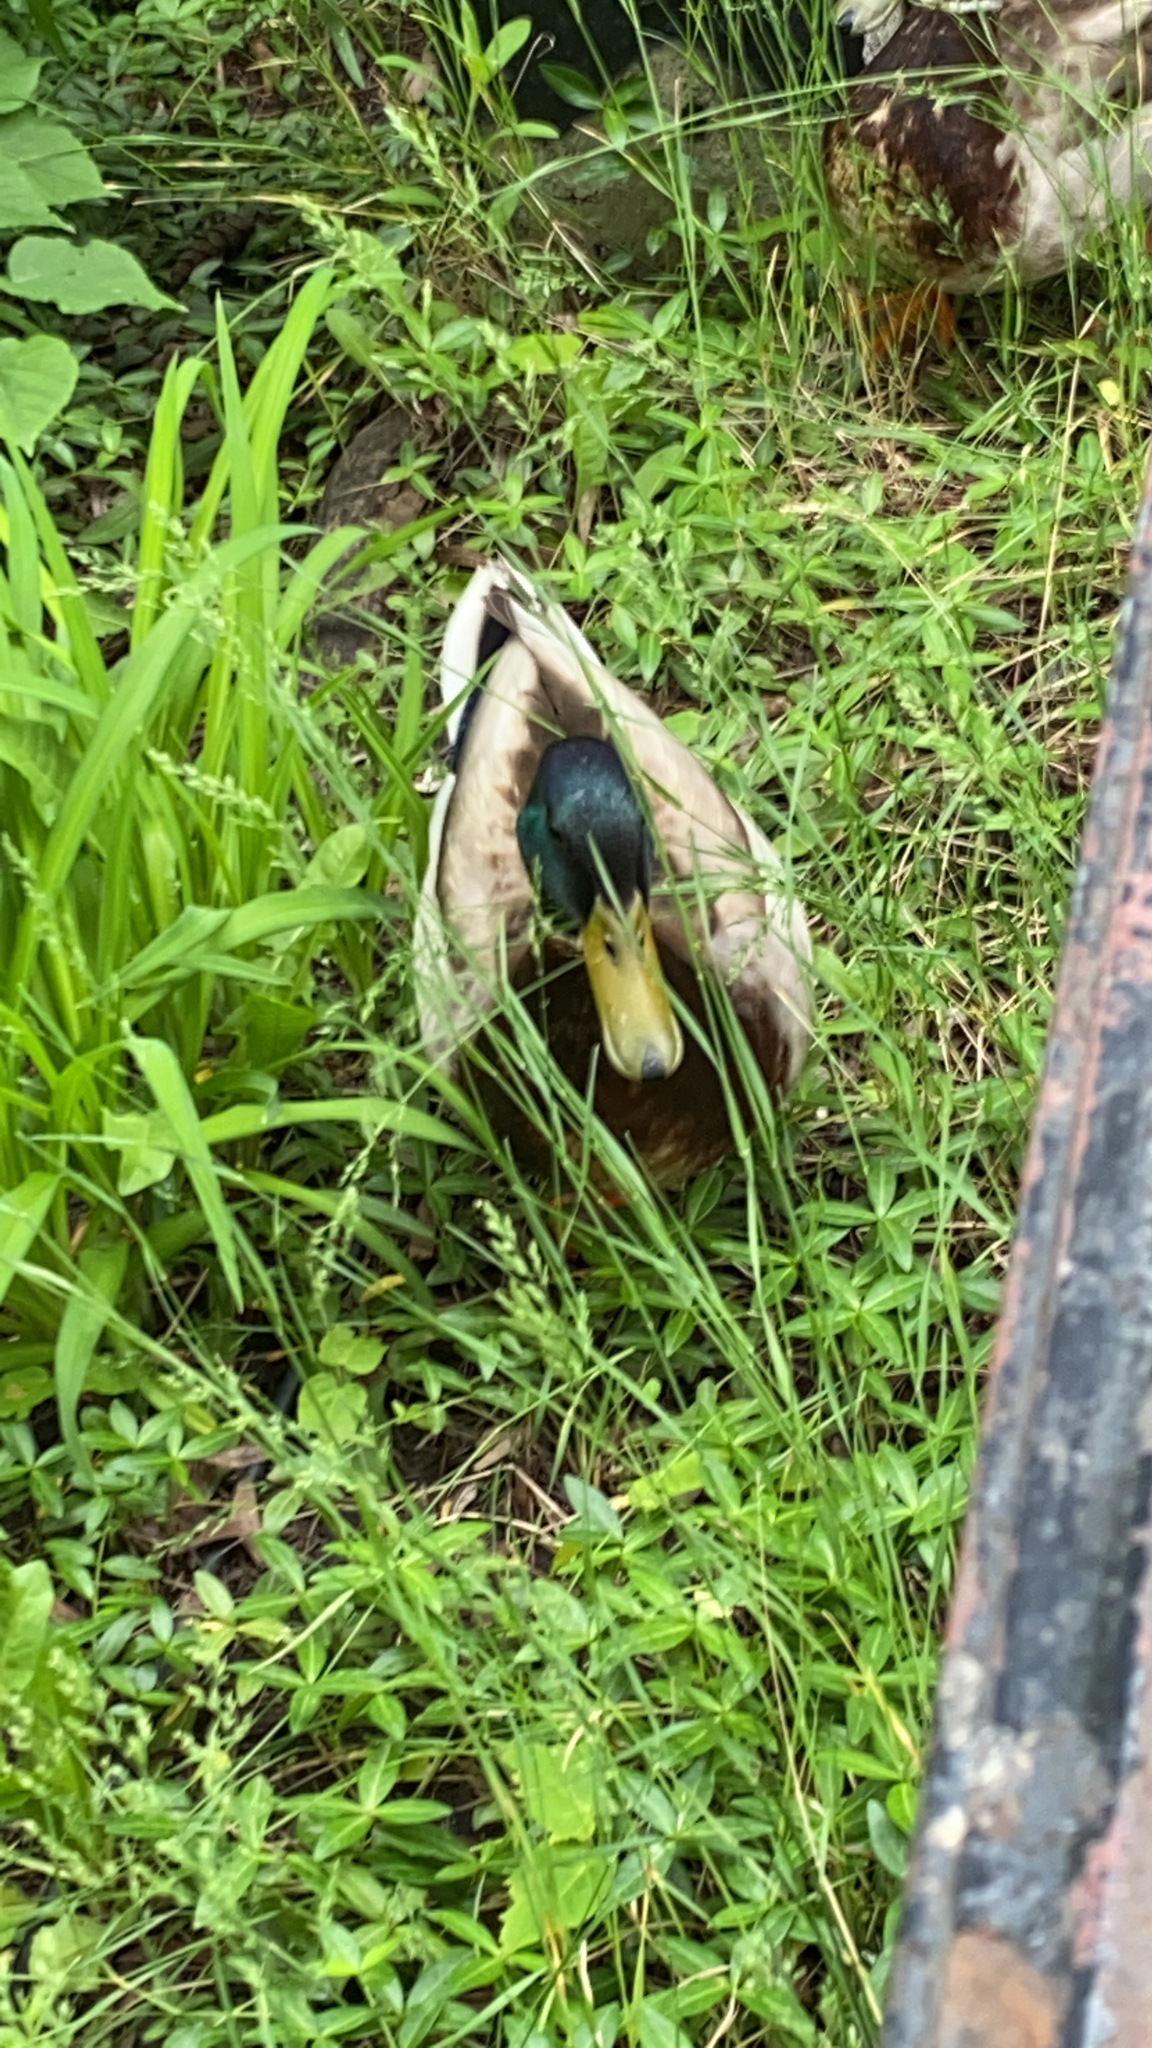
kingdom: Animalia
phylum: Chordata
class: Aves
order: Anseriformes
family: Anatidae
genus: Anas
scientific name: Anas platyrhynchos
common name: Mallard
